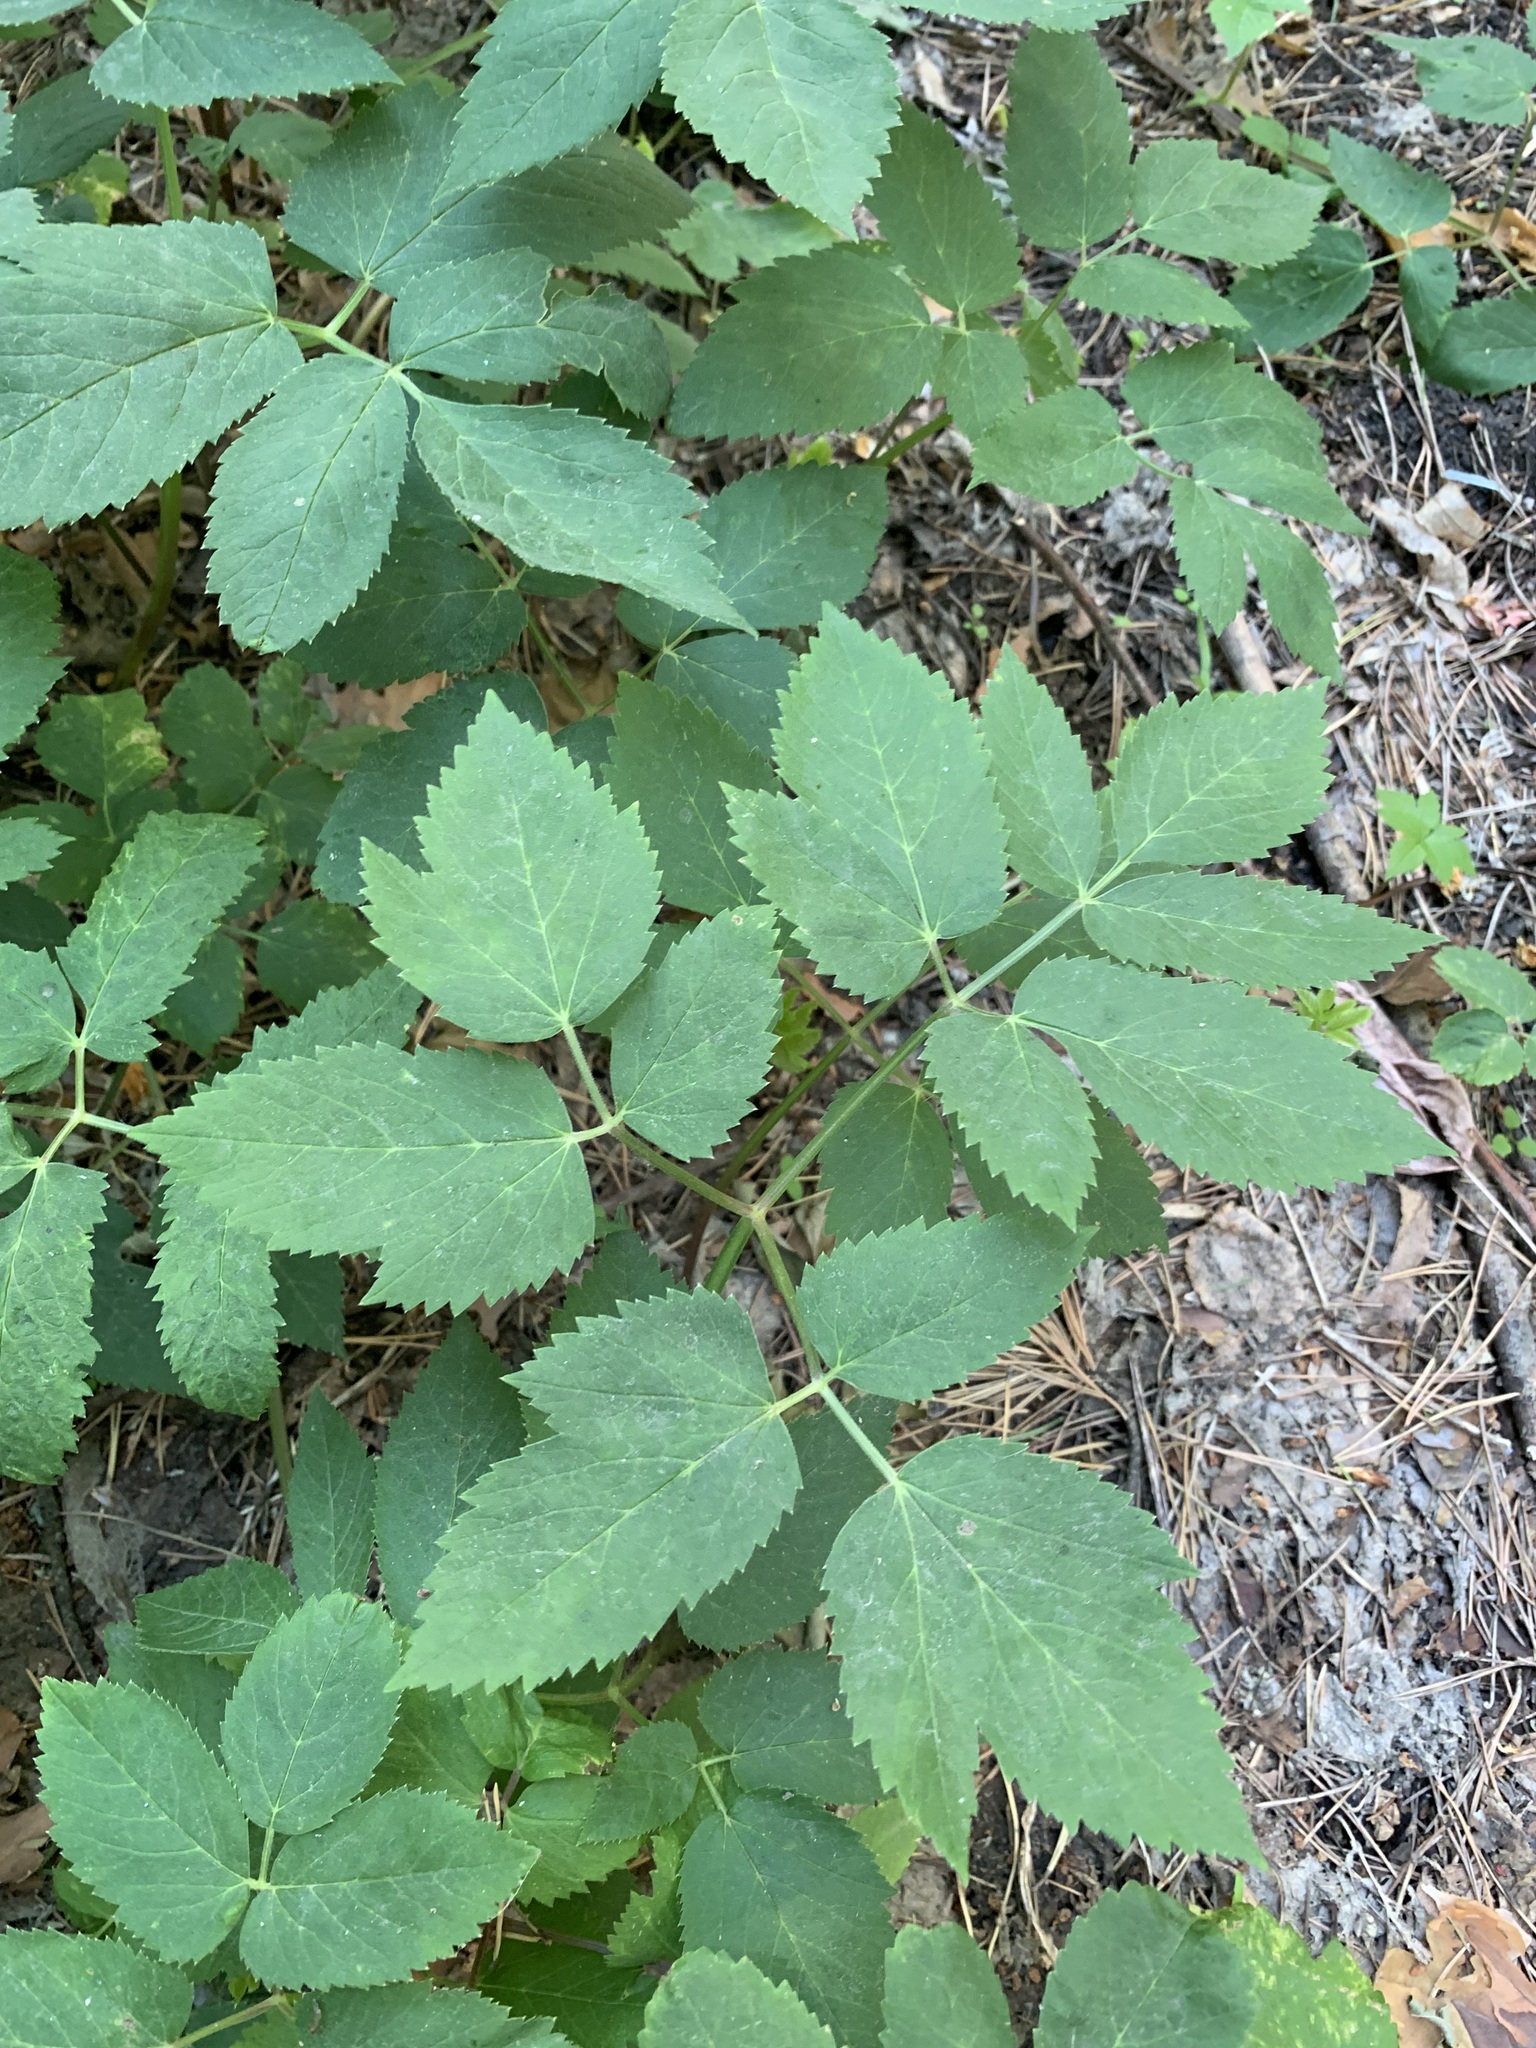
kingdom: Plantae
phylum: Tracheophyta
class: Magnoliopsida
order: Apiales
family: Apiaceae
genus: Aegopodium
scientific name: Aegopodium podagraria
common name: Ground-elder
